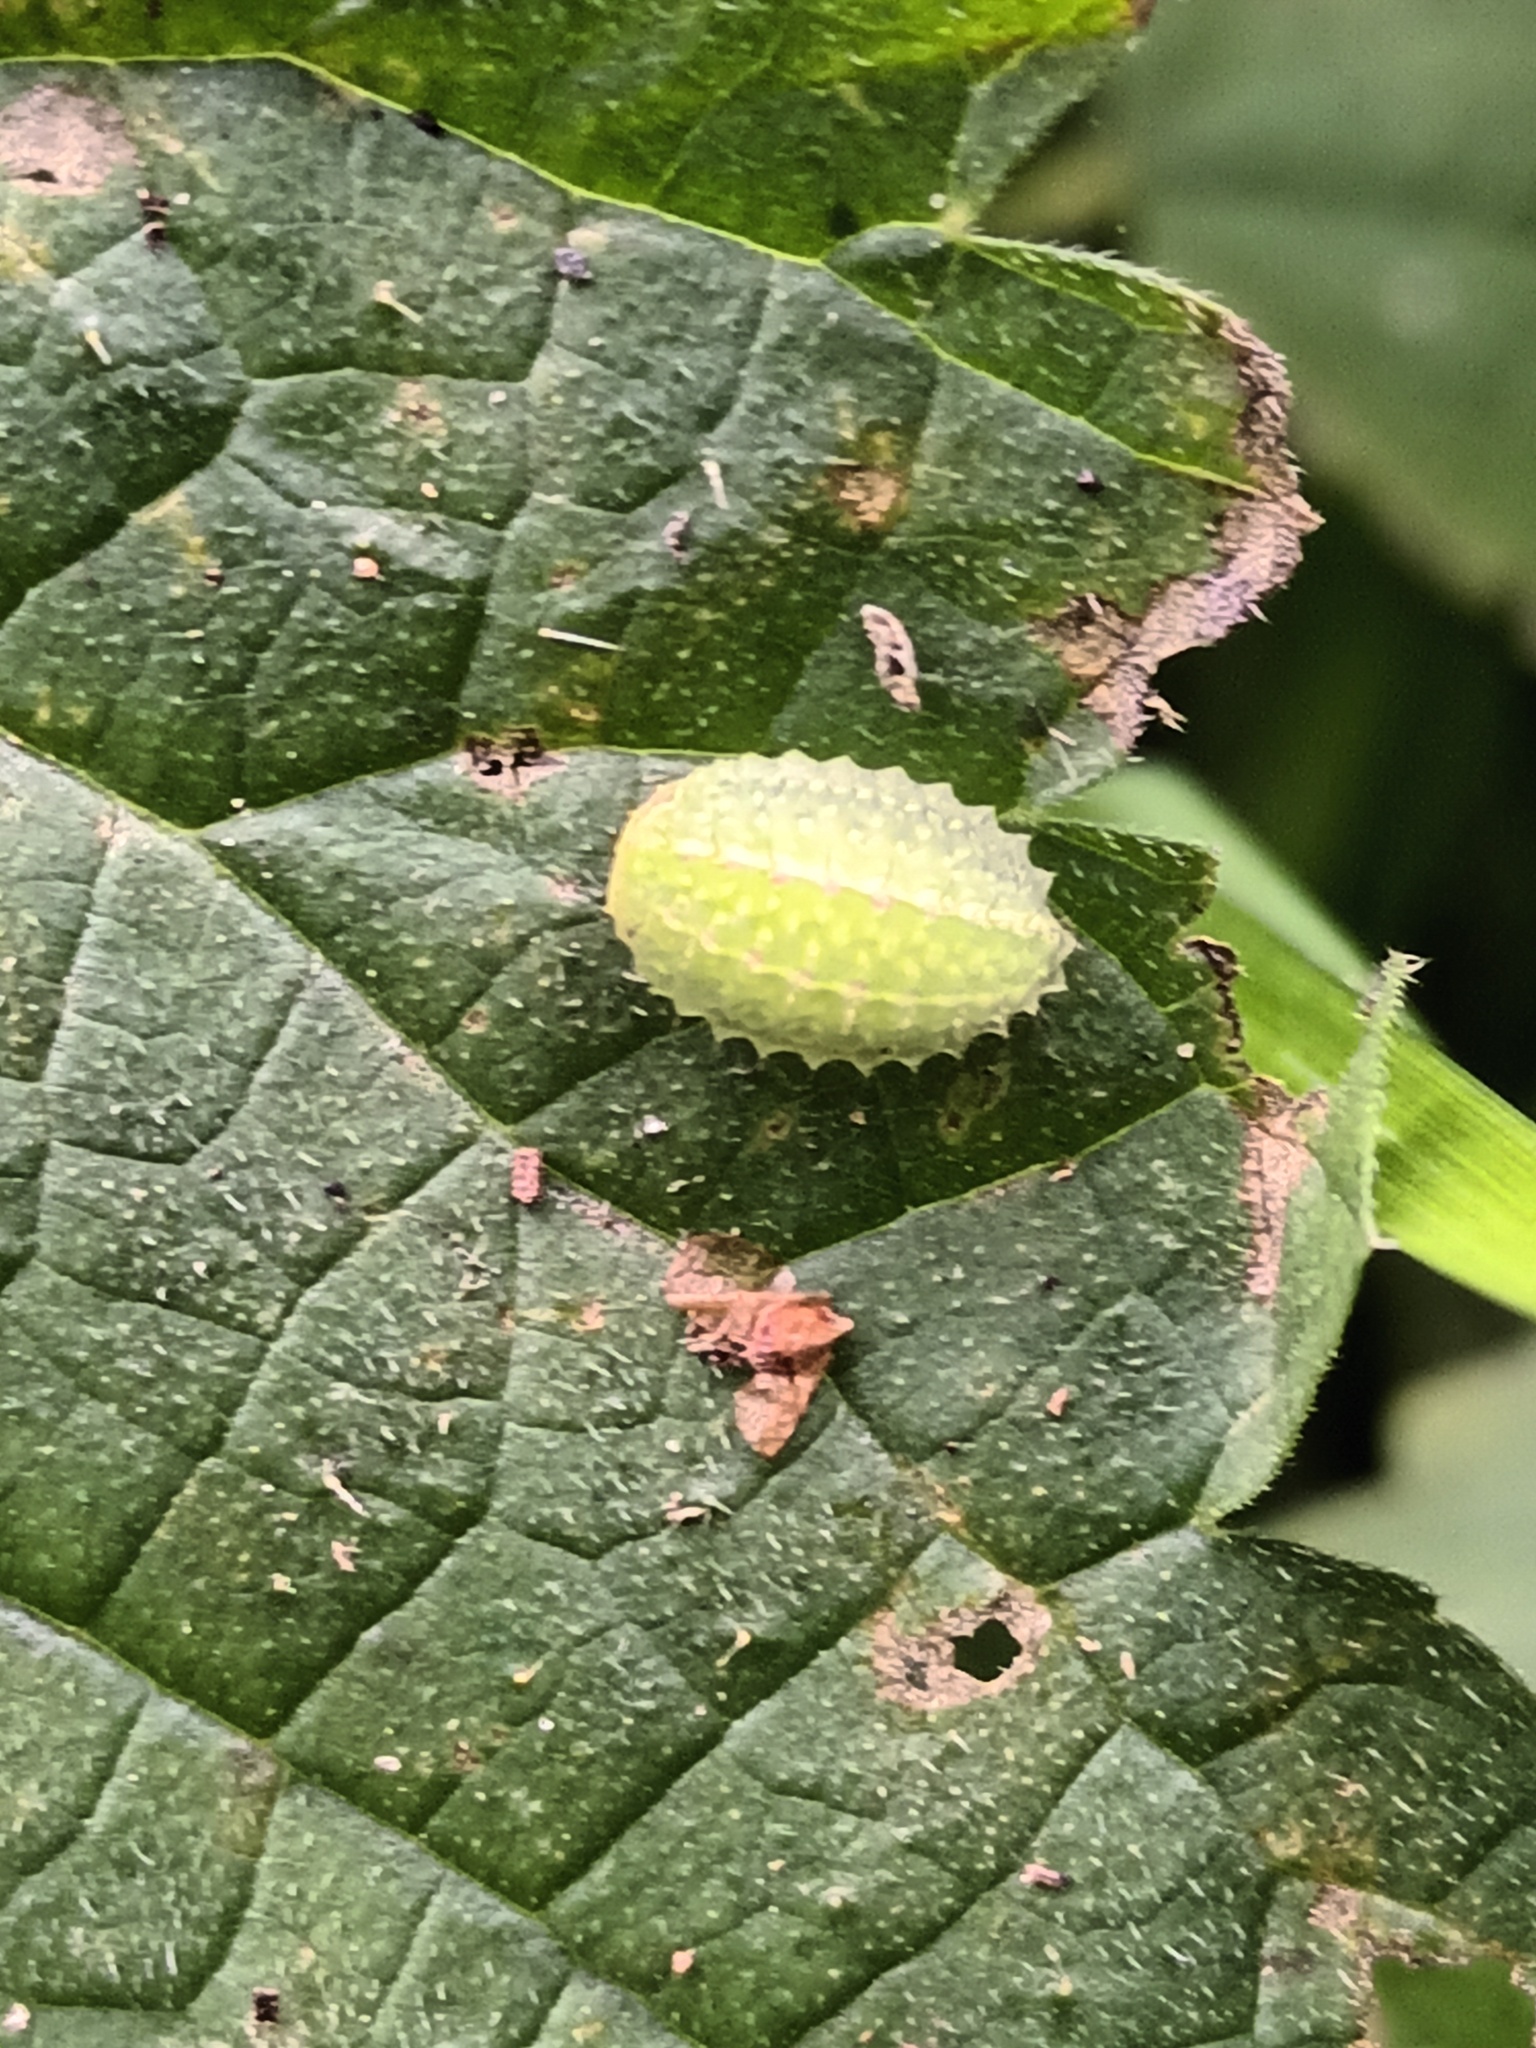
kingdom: Animalia
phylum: Arthropoda
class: Insecta
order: Lepidoptera
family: Limacodidae
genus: Apoda
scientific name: Apoda limacodes
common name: Festoon
